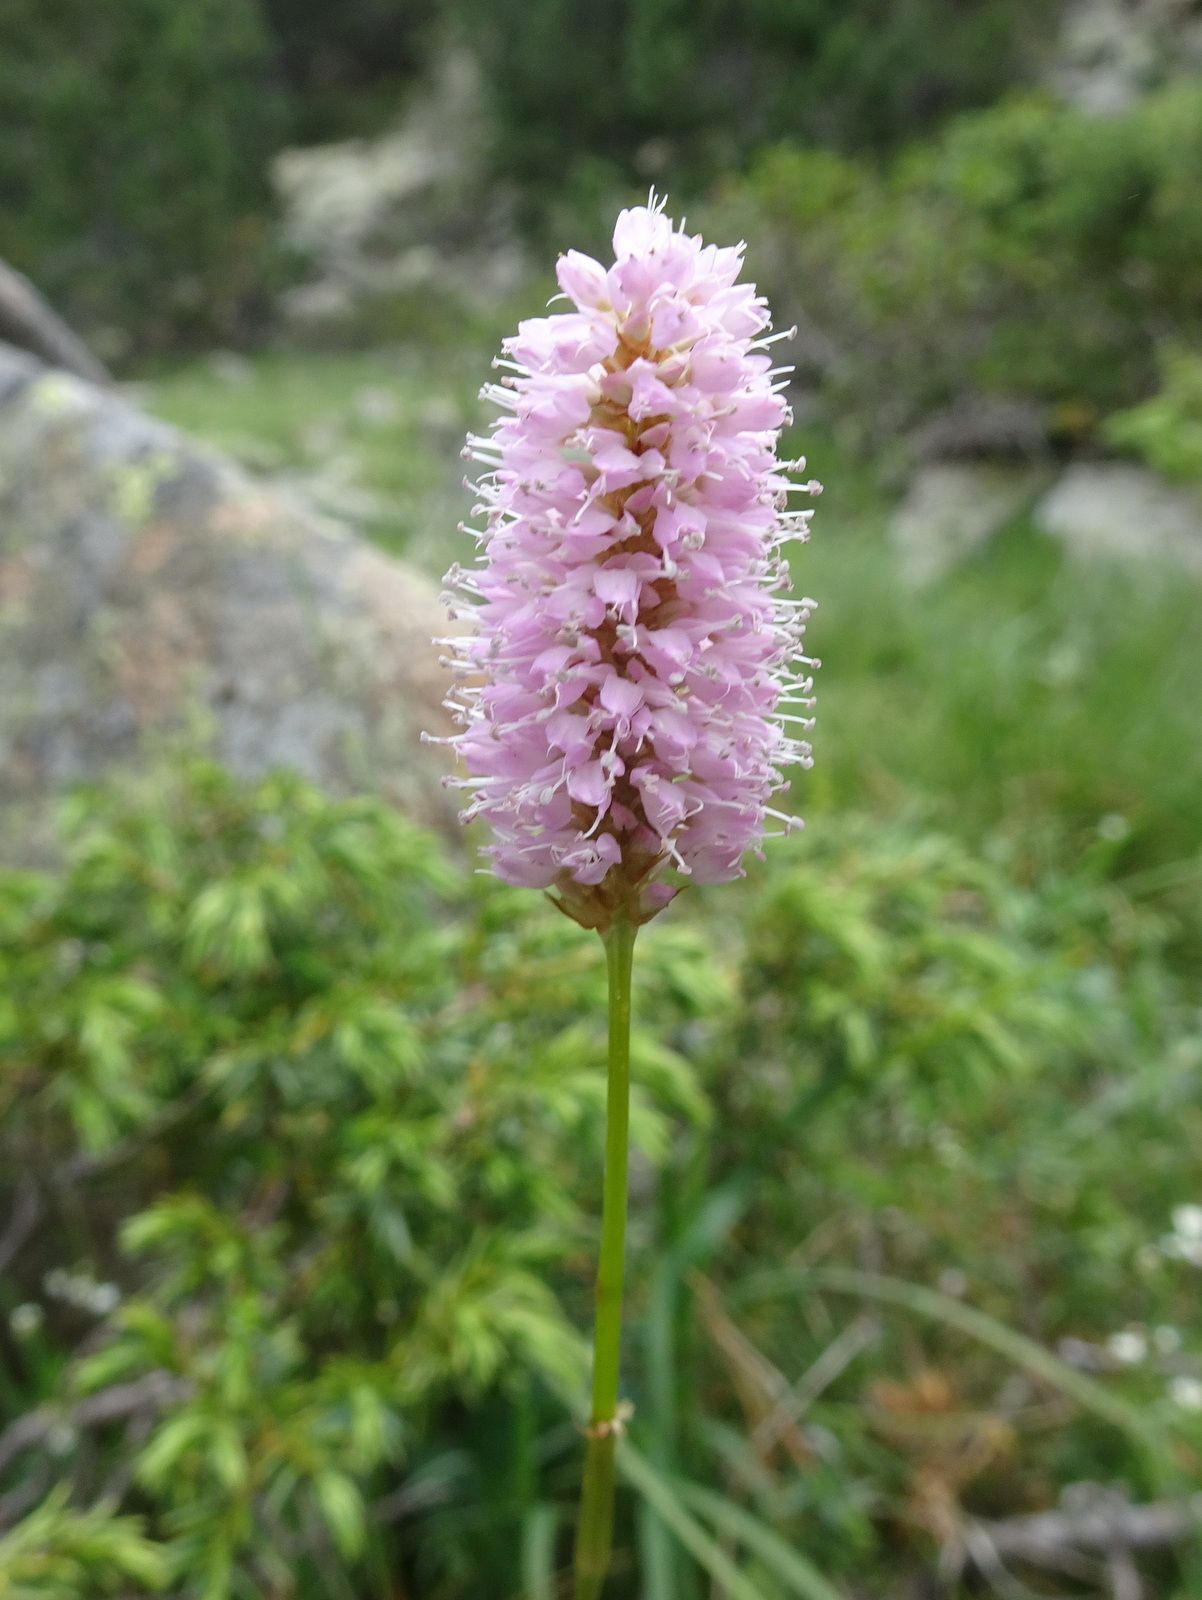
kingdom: Plantae
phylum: Tracheophyta
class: Magnoliopsida
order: Caryophyllales
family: Polygonaceae
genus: Bistorta
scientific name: Bistorta officinalis
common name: Common bistort
